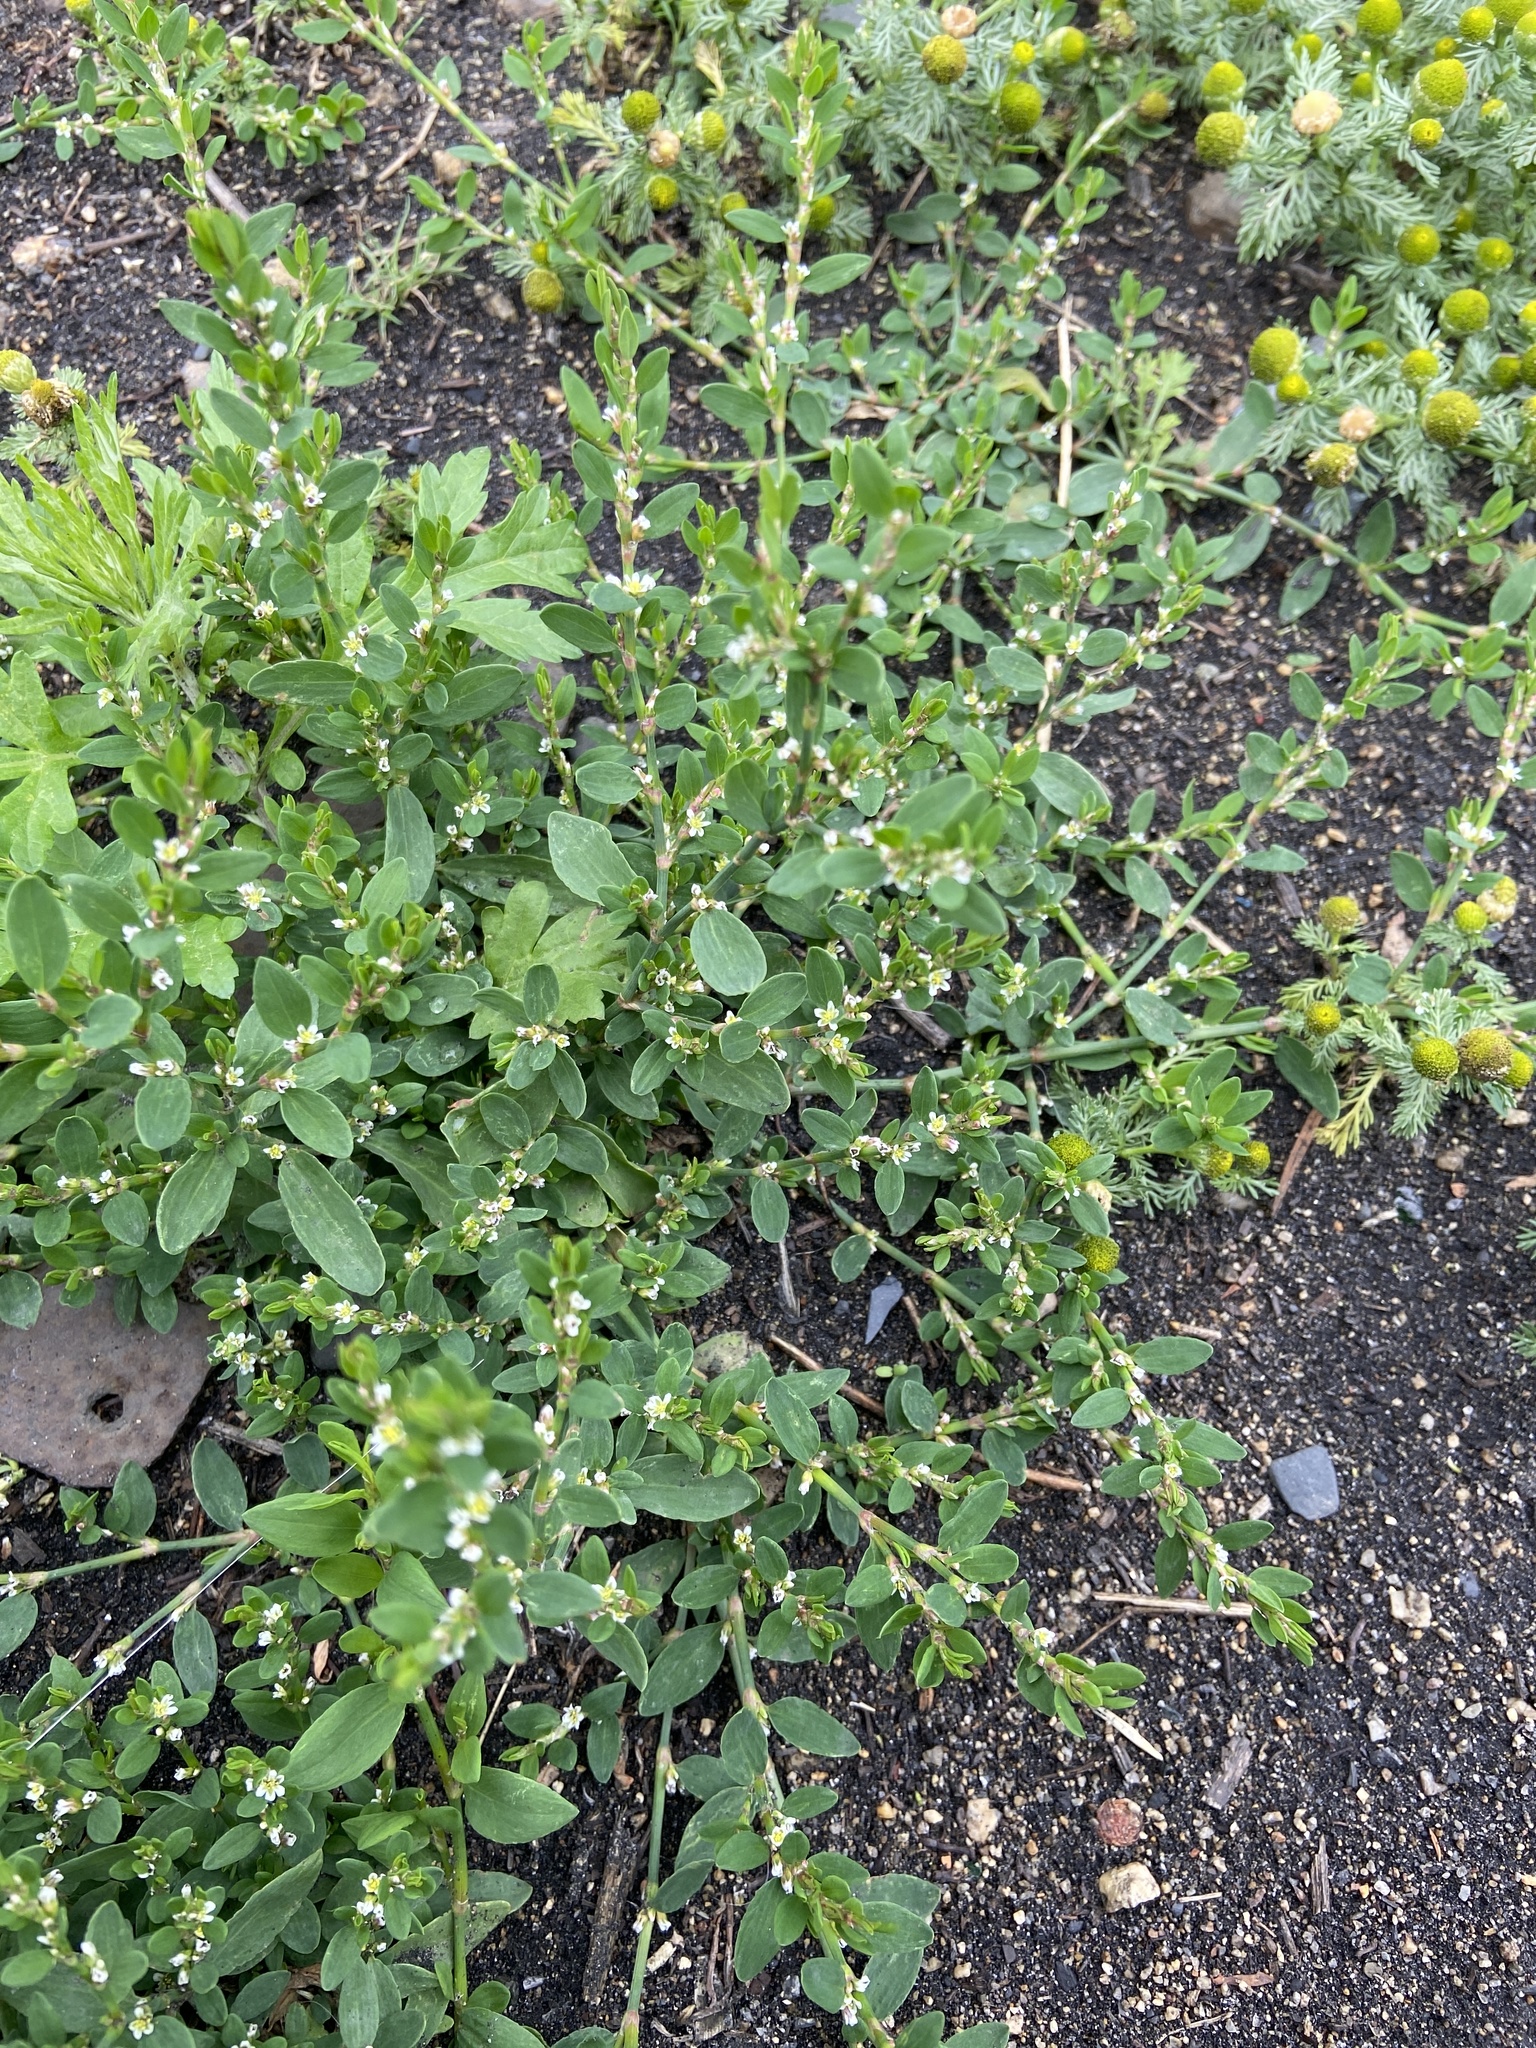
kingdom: Plantae
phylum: Tracheophyta
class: Magnoliopsida
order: Caryophyllales
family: Polygonaceae
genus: Polygonum
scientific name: Polygonum aviculare
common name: Prostrate knotweed
